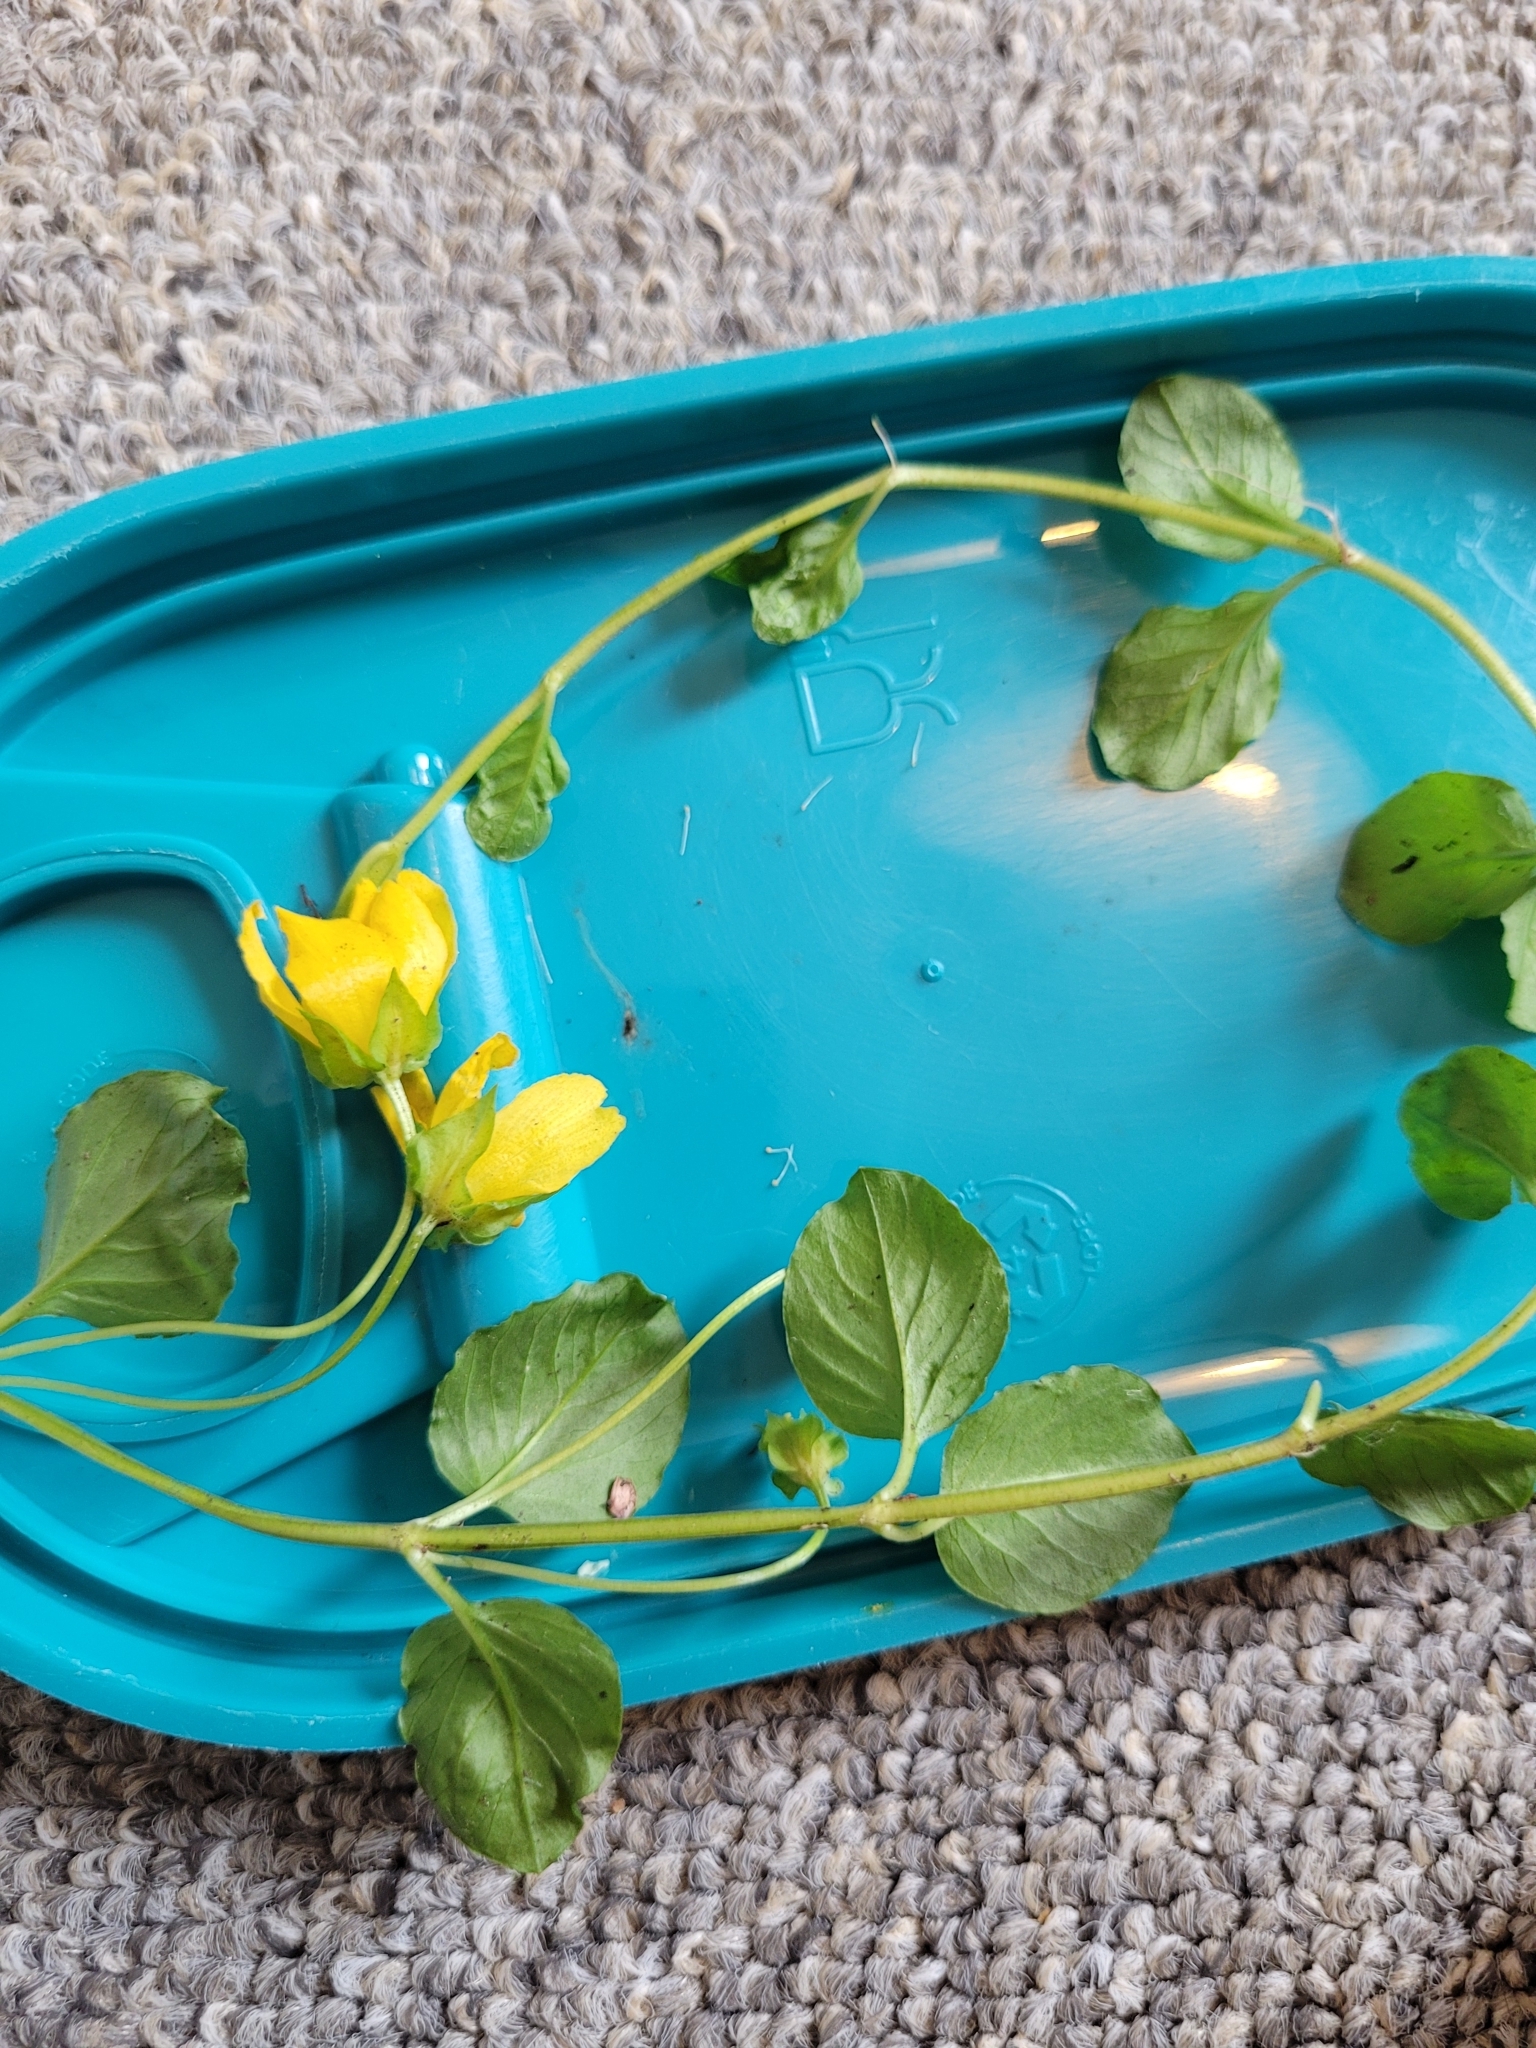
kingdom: Plantae
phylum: Tracheophyta
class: Magnoliopsida
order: Ericales
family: Primulaceae
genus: Lysimachia
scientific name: Lysimachia nummularia
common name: Moneywort
